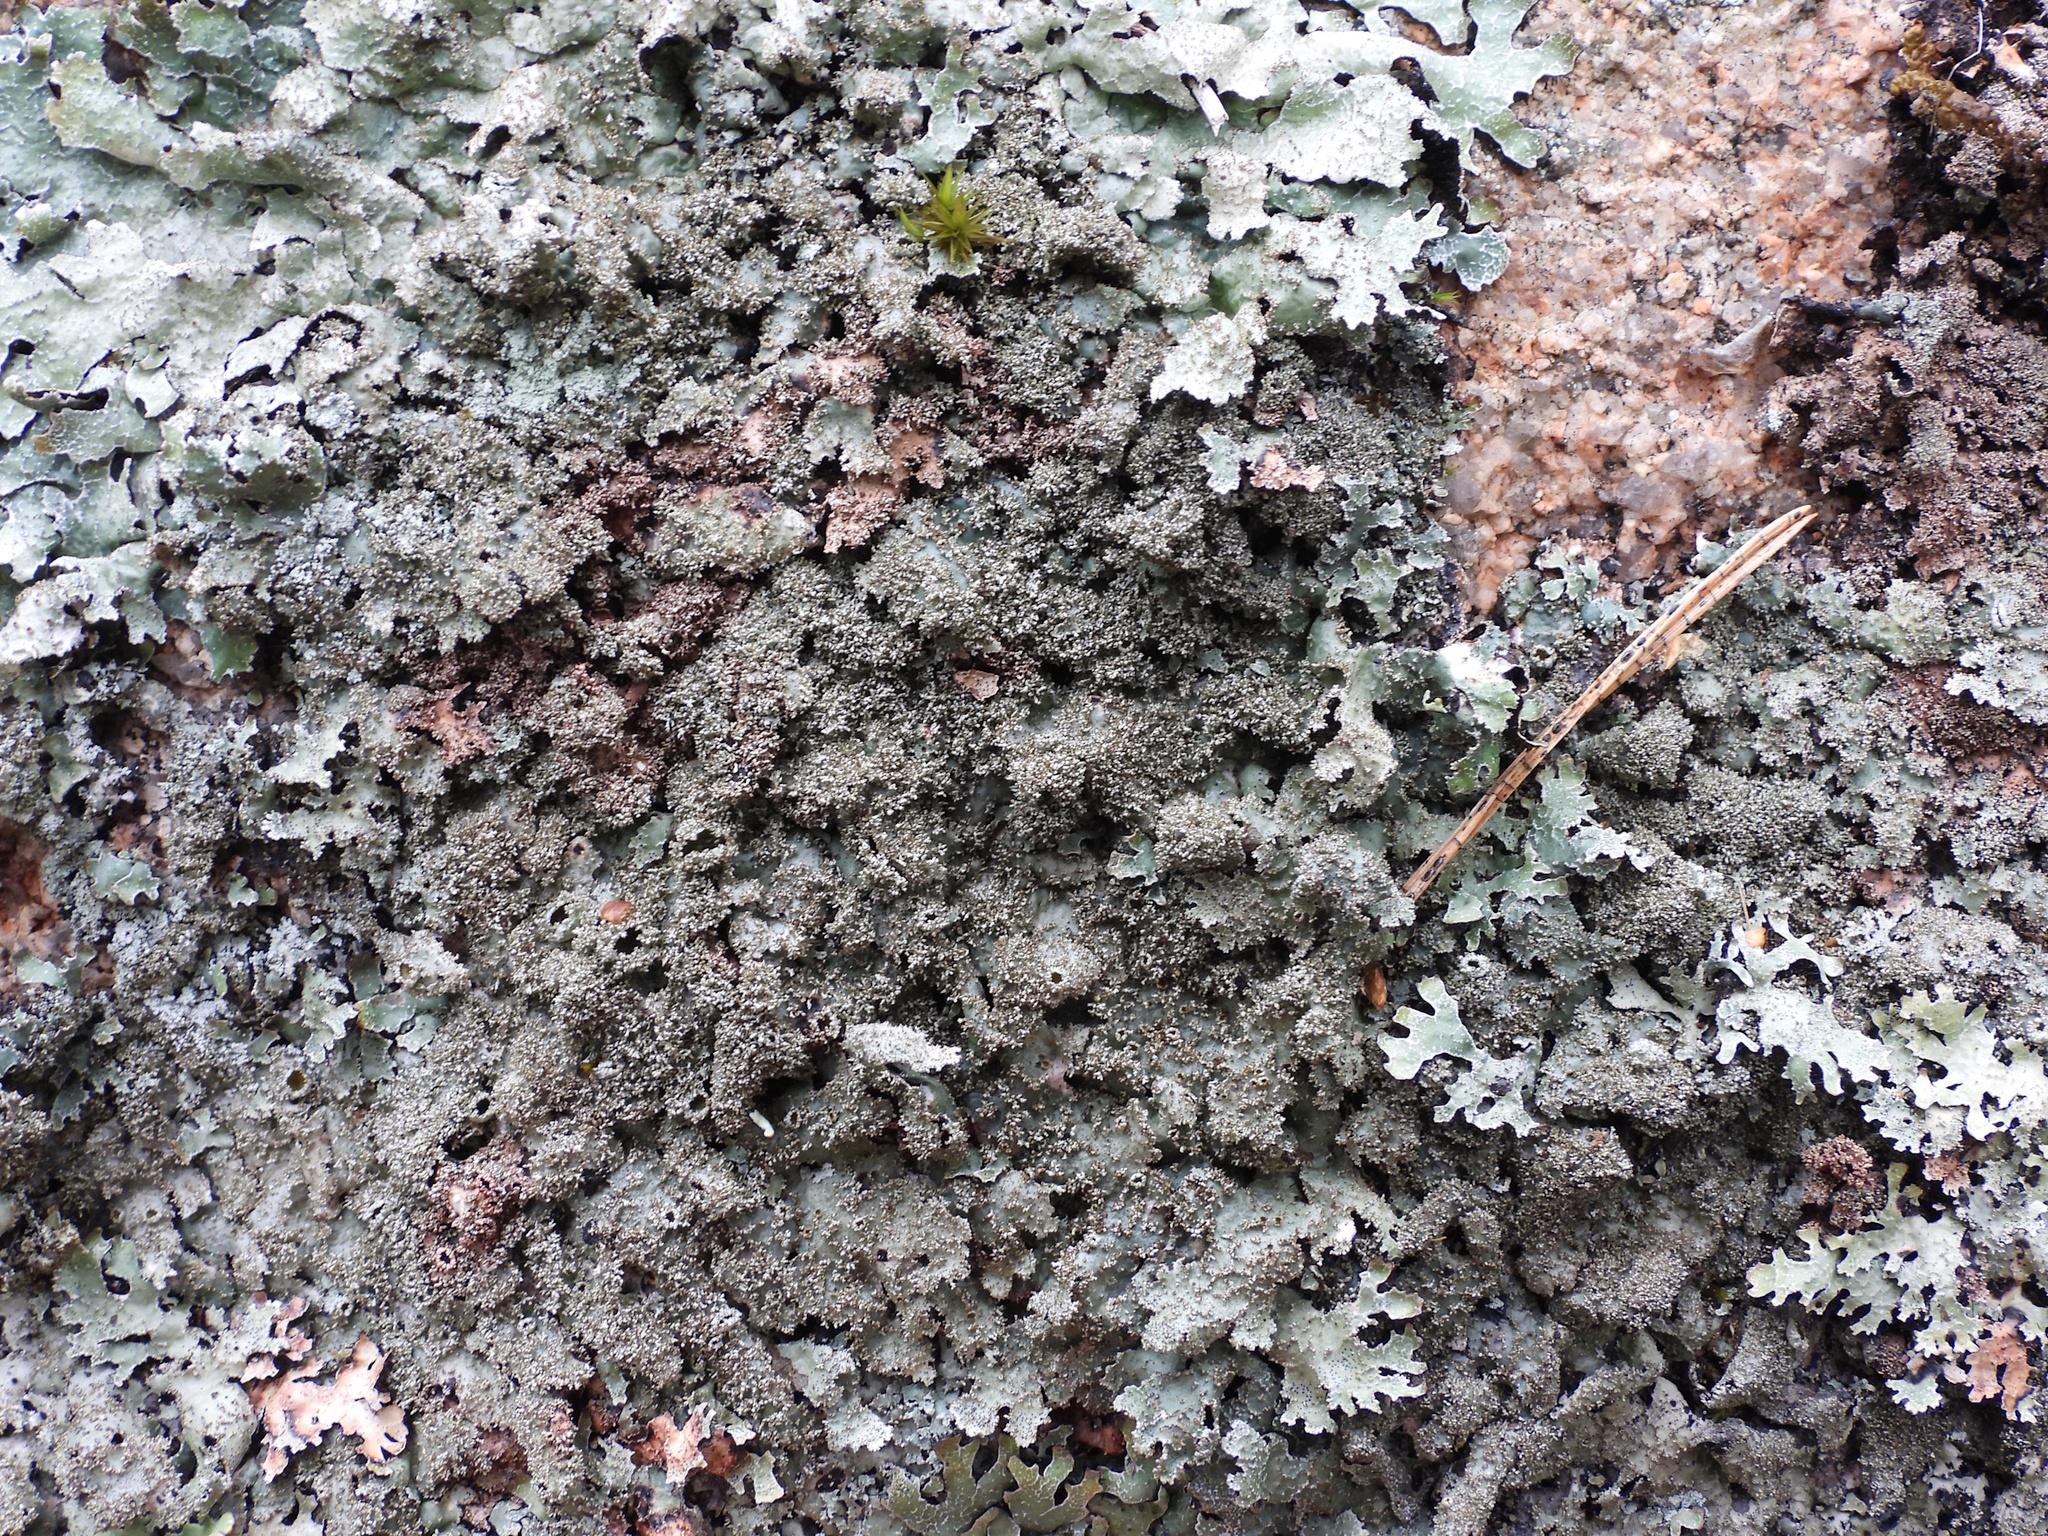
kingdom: Fungi
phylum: Ascomycota
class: Lecanoromycetes
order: Lecanorales
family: Parmeliaceae
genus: Parmelia
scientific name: Parmelia saxatilis
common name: Salted shield lichen
